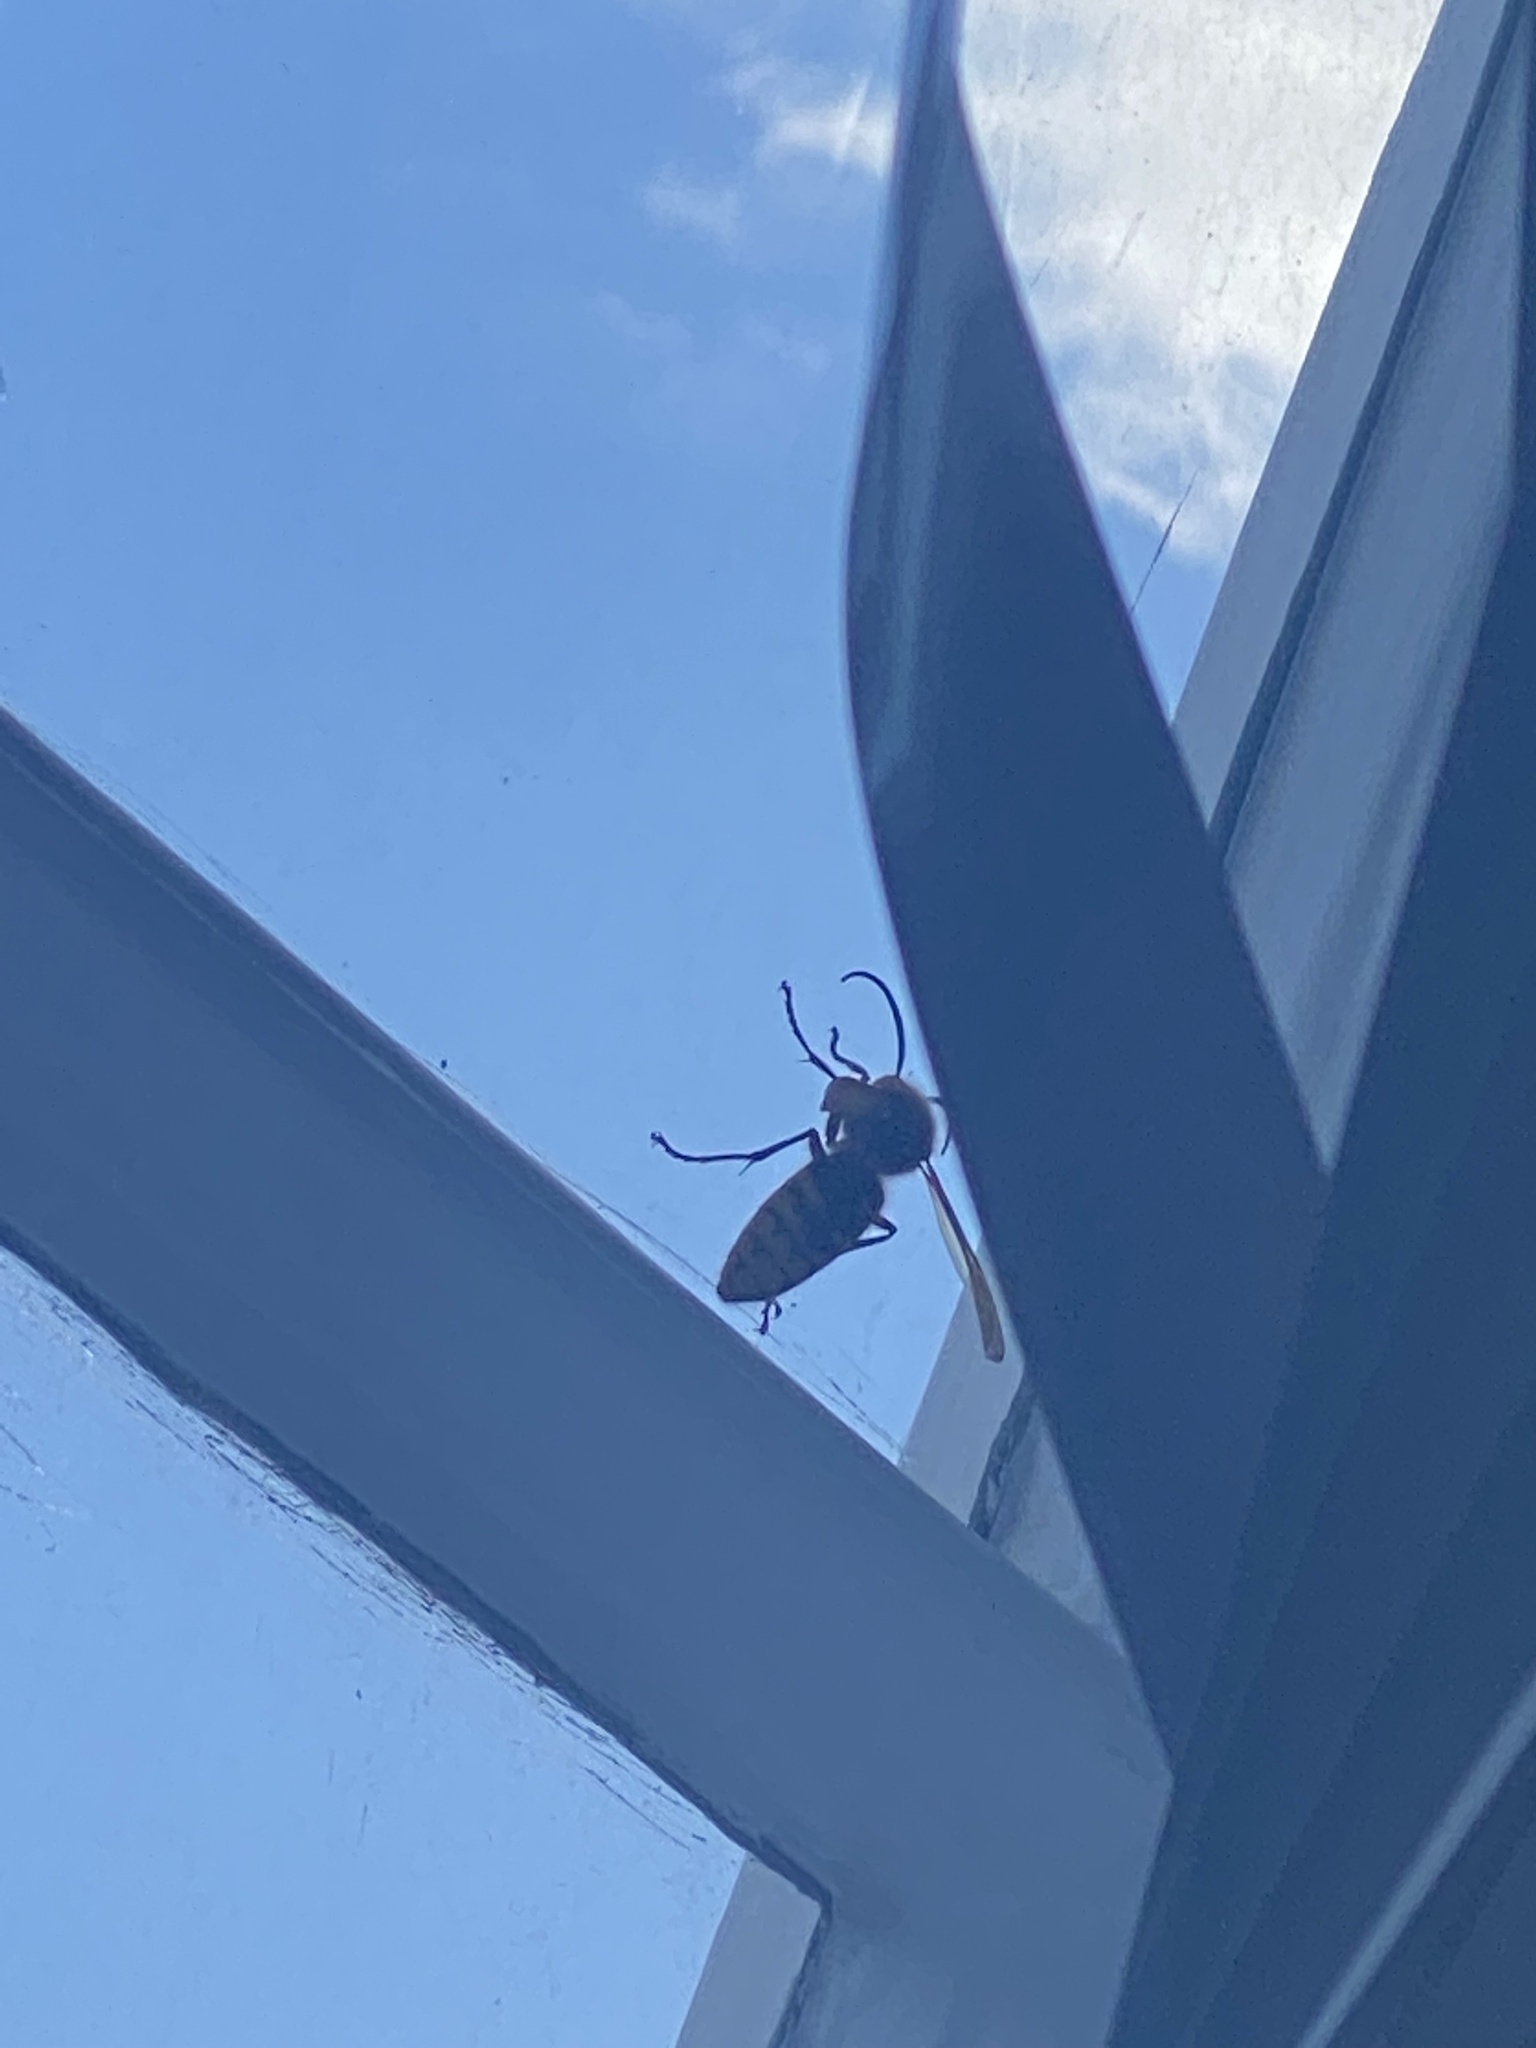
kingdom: Animalia
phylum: Arthropoda
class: Insecta
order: Hymenoptera
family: Vespidae
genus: Vespa
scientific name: Vespa crabro
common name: Hornet
